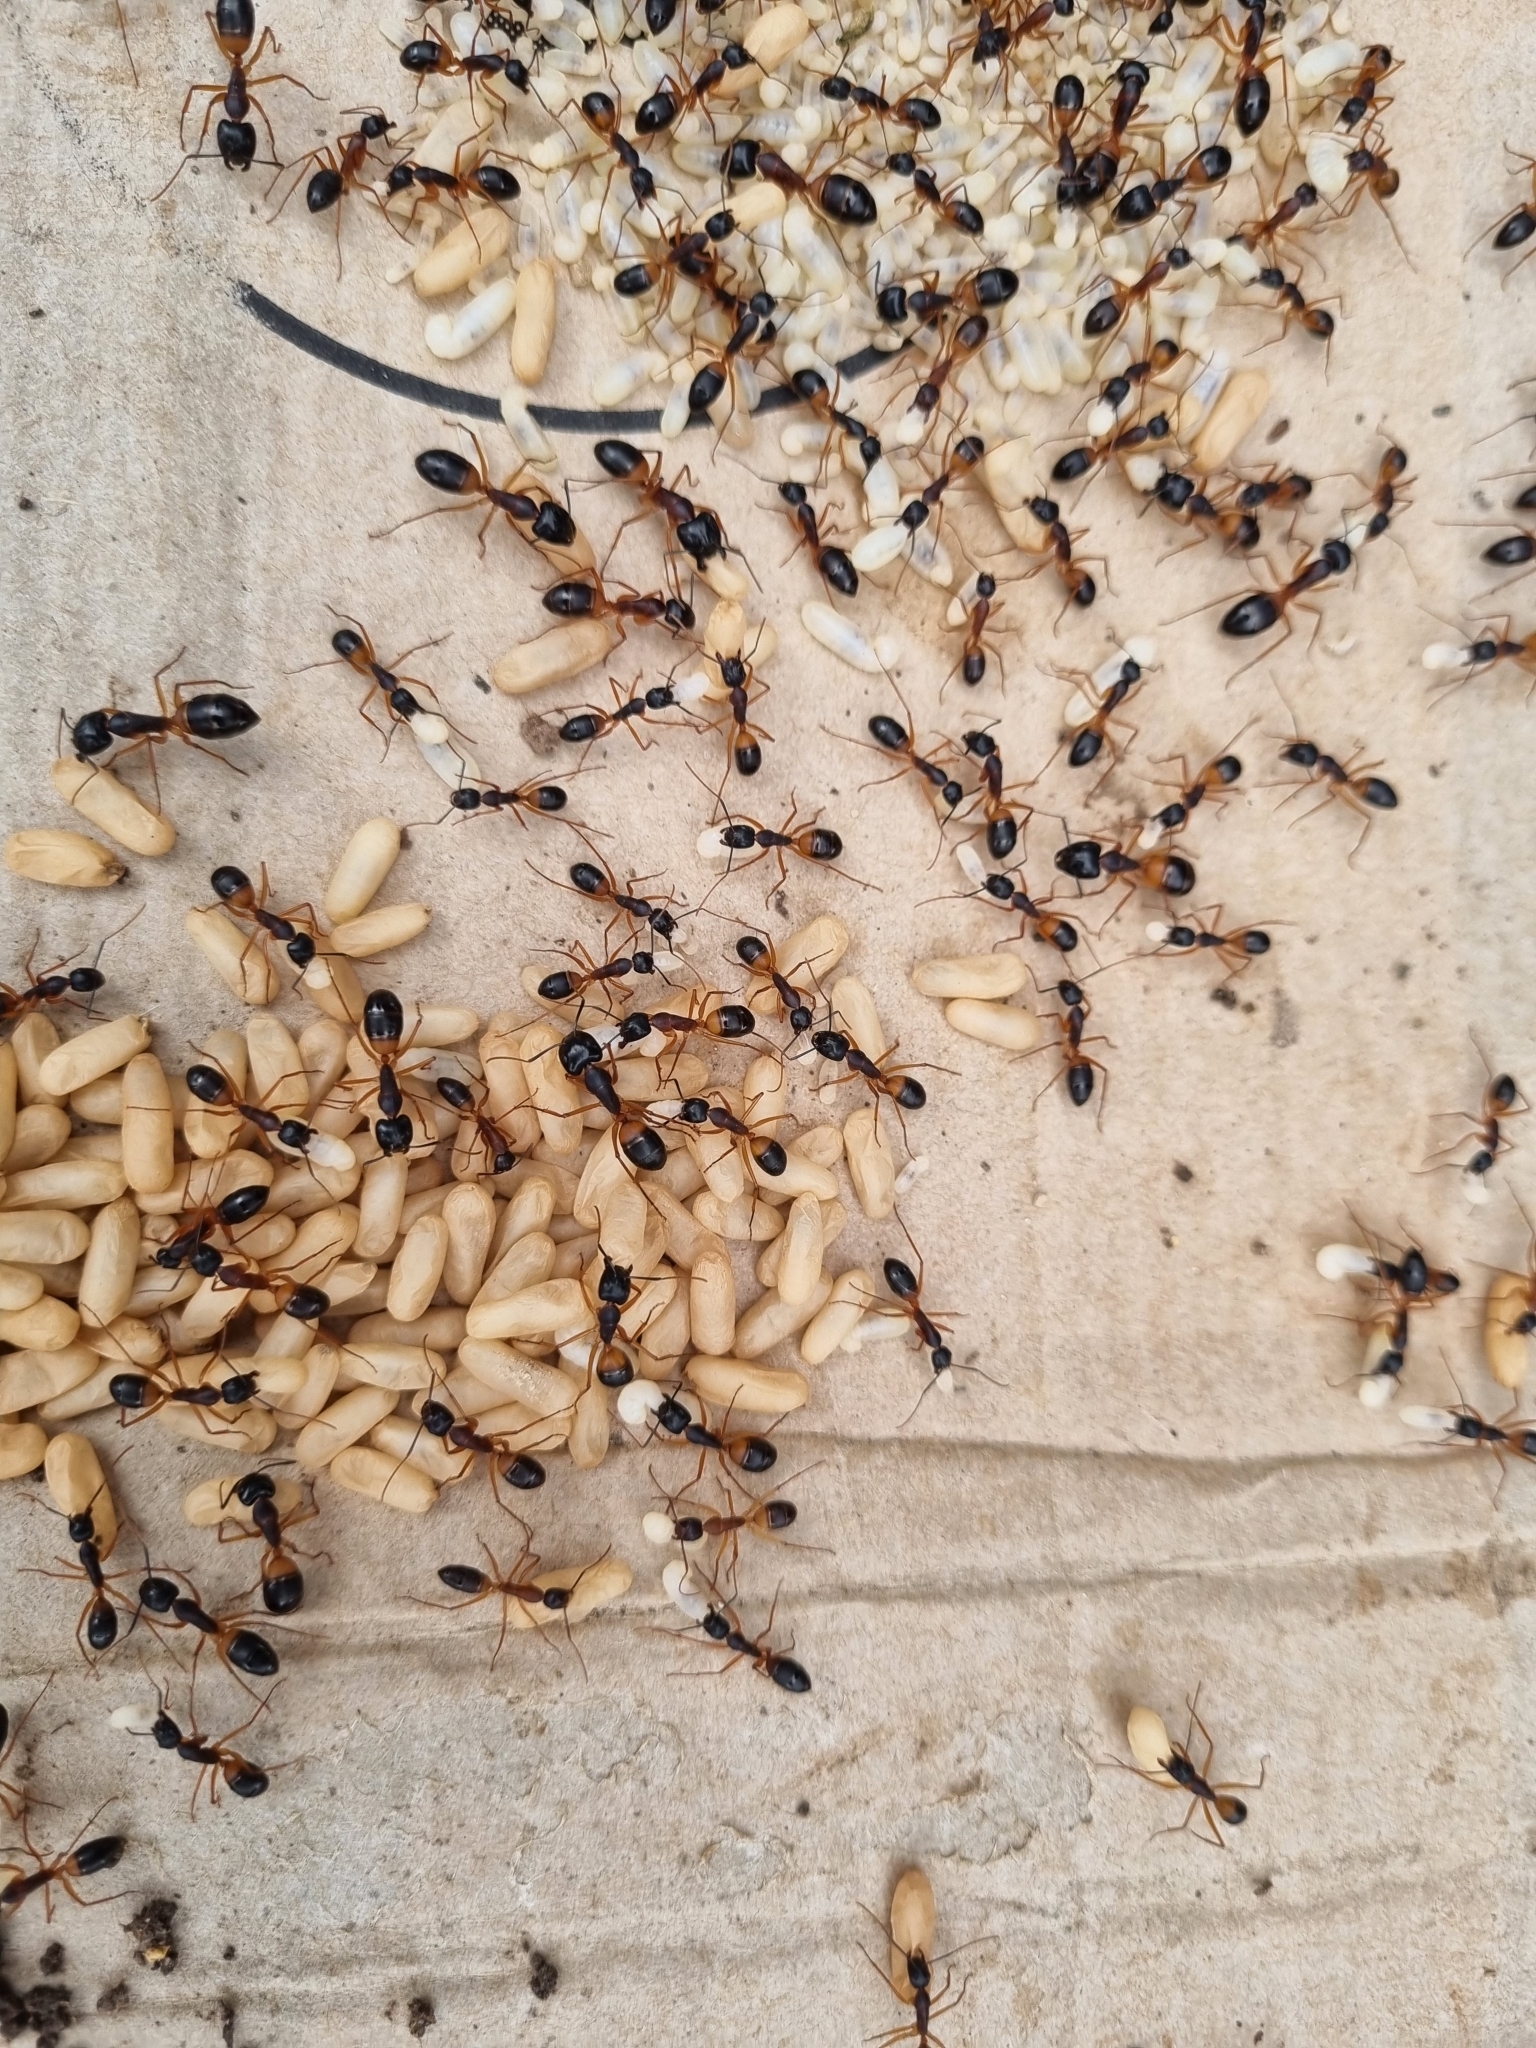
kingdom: Animalia
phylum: Arthropoda
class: Insecta
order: Hymenoptera
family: Formicidae
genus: Camponotus
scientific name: Camponotus consobrinus
